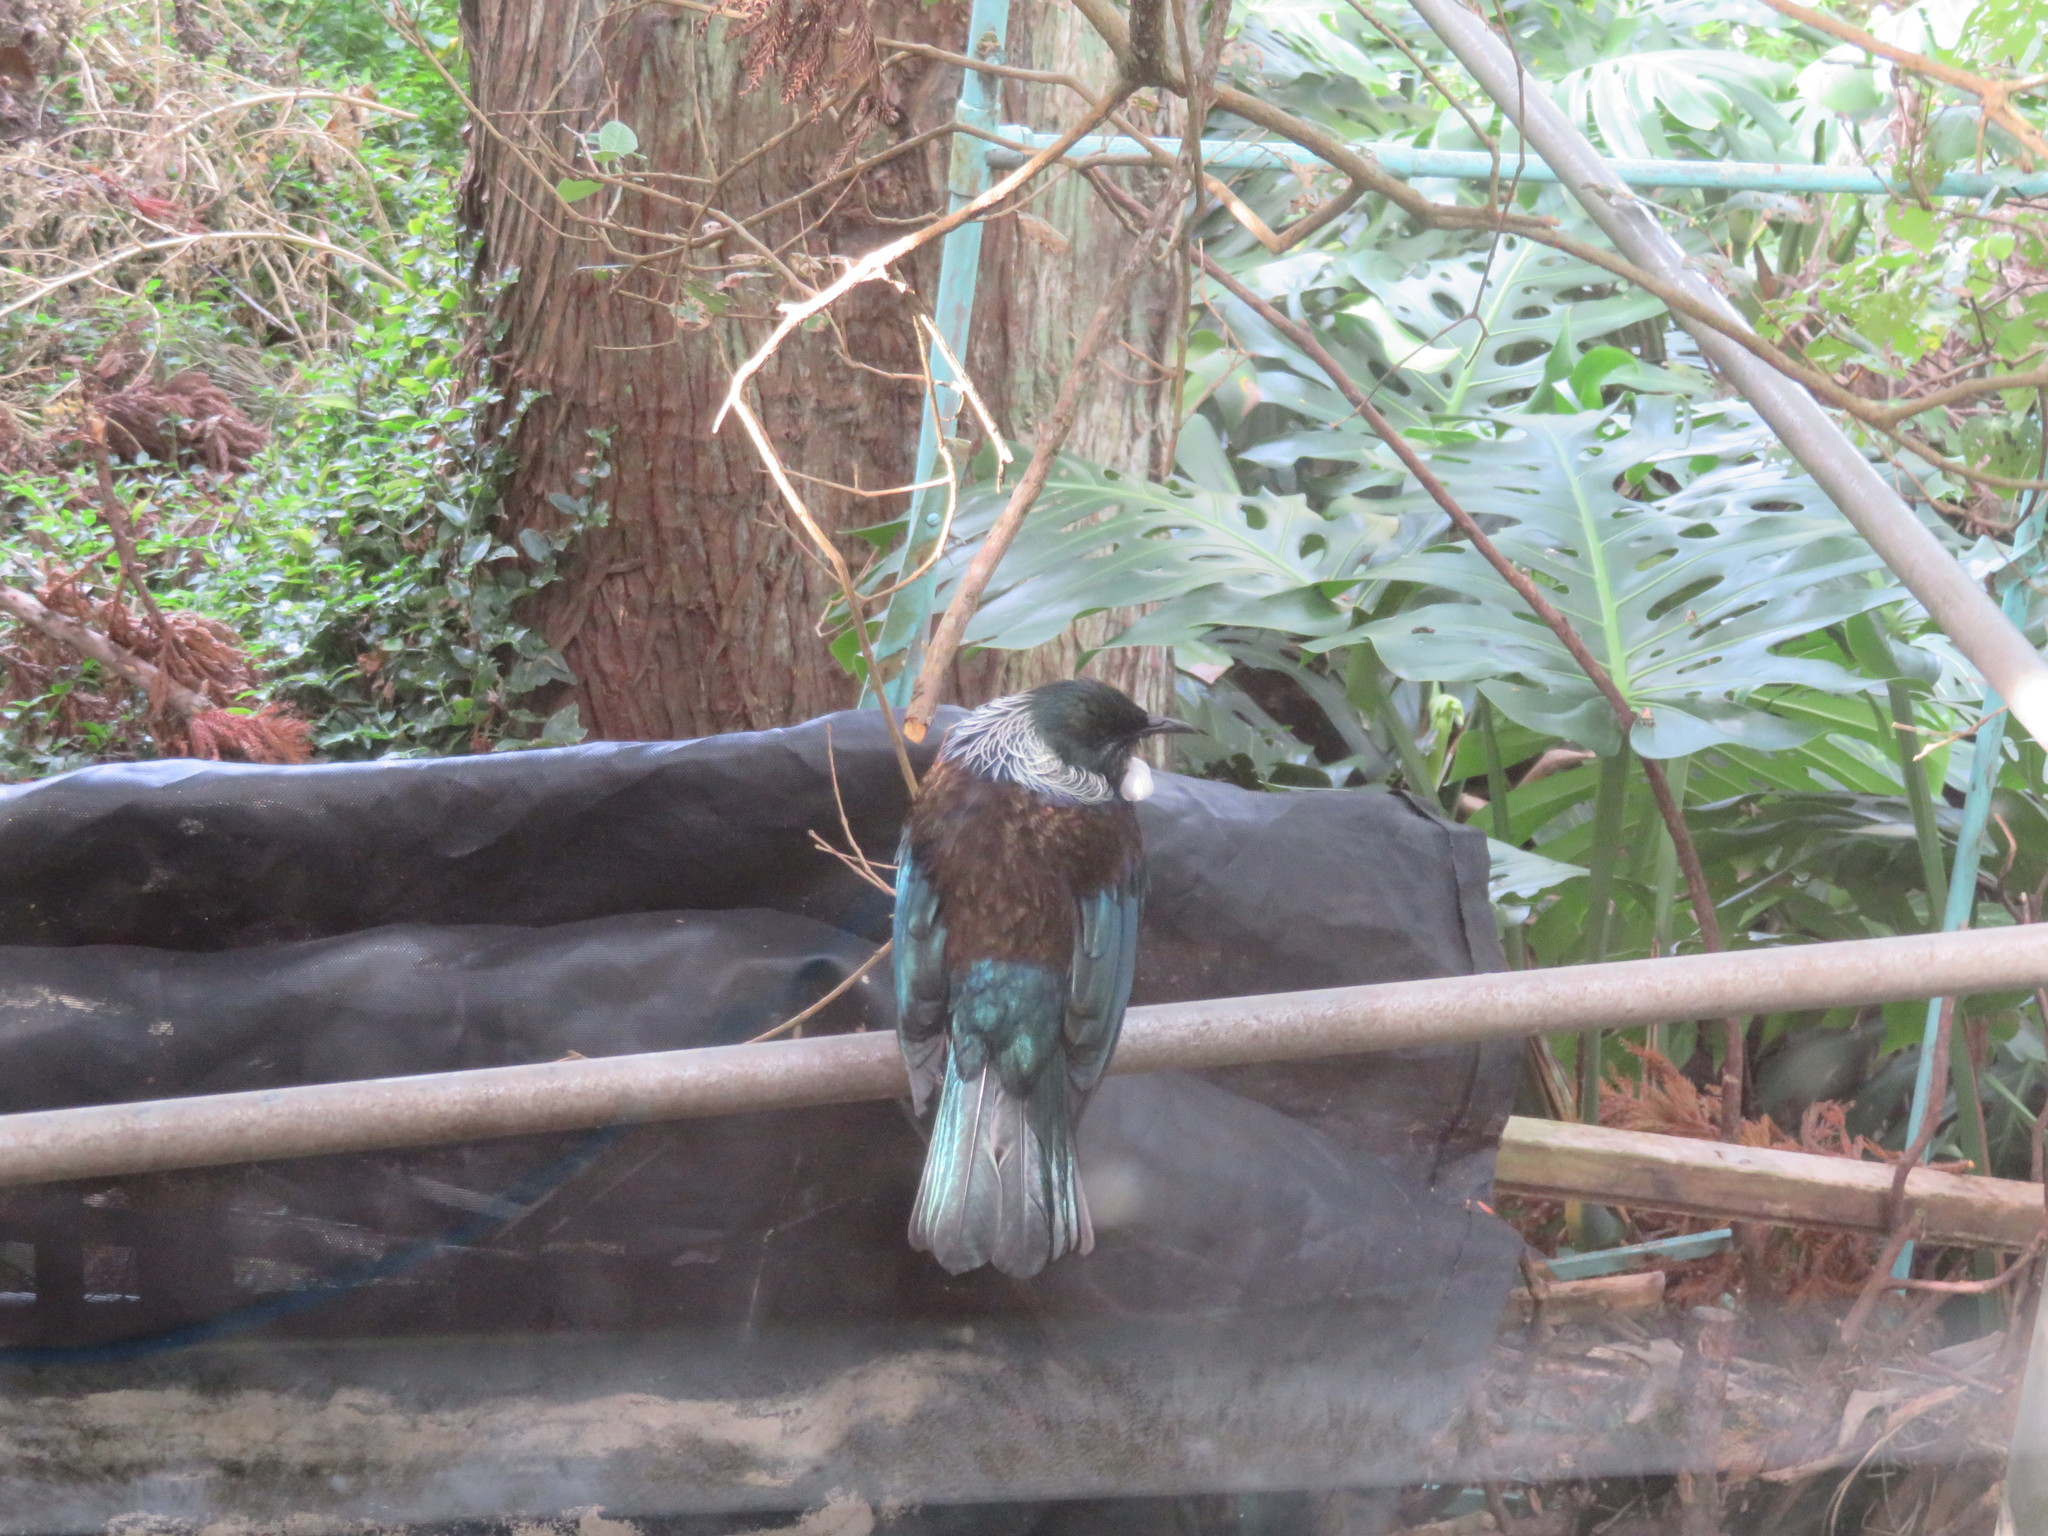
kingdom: Animalia
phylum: Chordata
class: Aves
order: Passeriformes
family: Meliphagidae
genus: Prosthemadera
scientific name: Prosthemadera novaeseelandiae
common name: Tui
